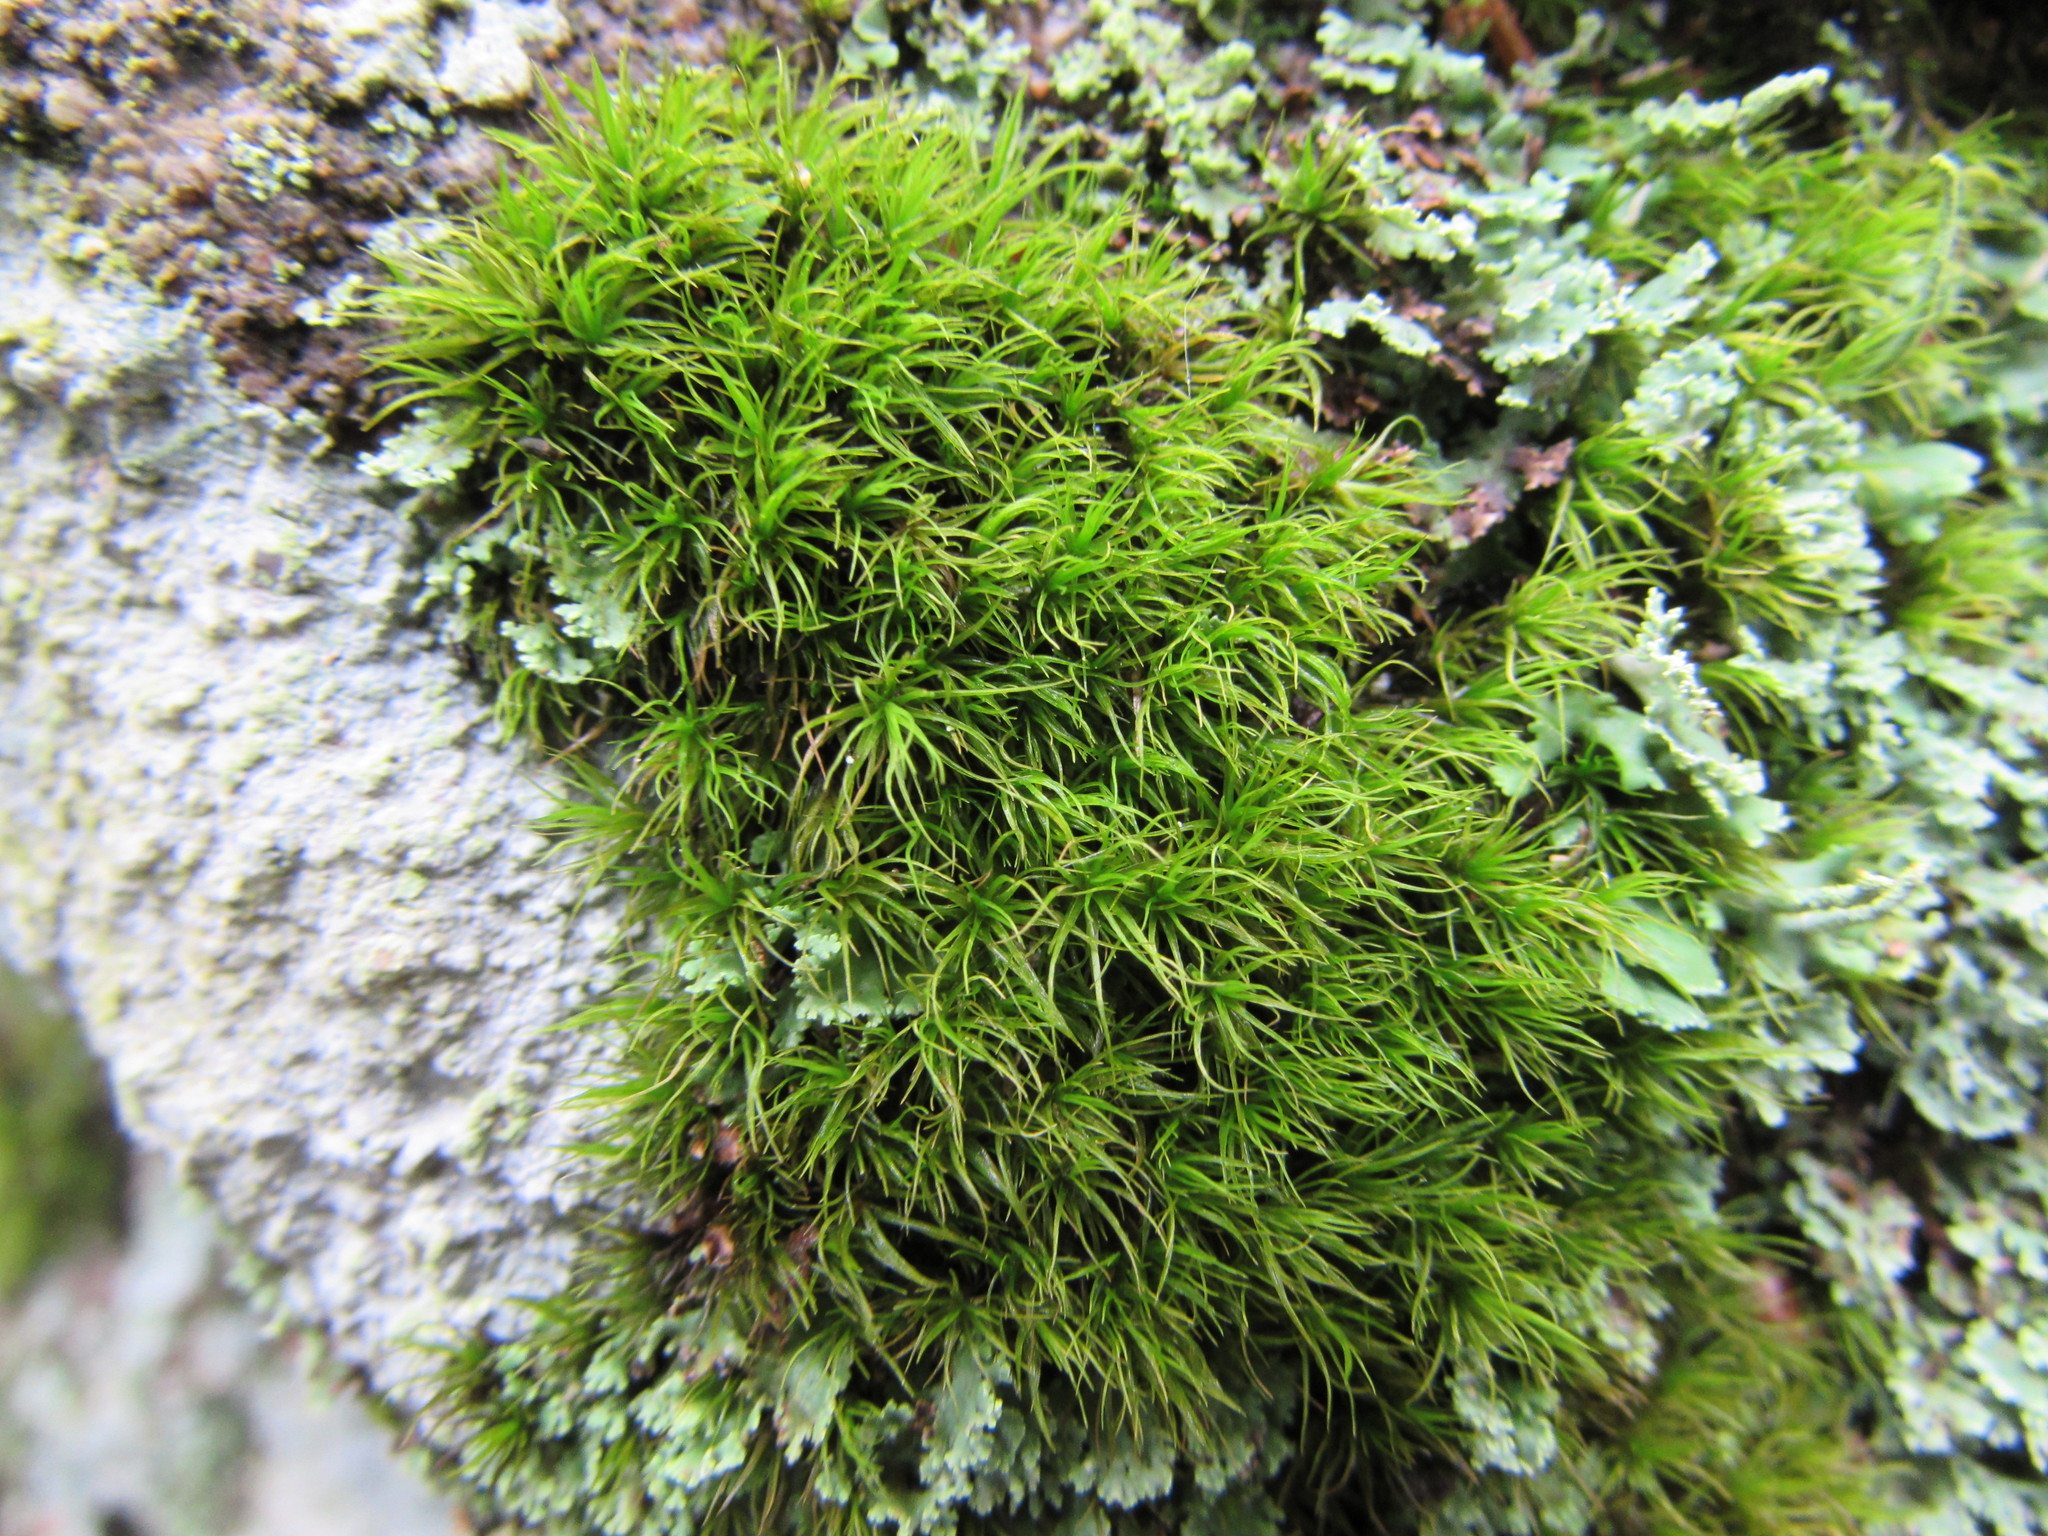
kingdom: Plantae
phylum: Bryophyta
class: Bryopsida
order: Dicranales
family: Dicranaceae
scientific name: Dicranaceae
